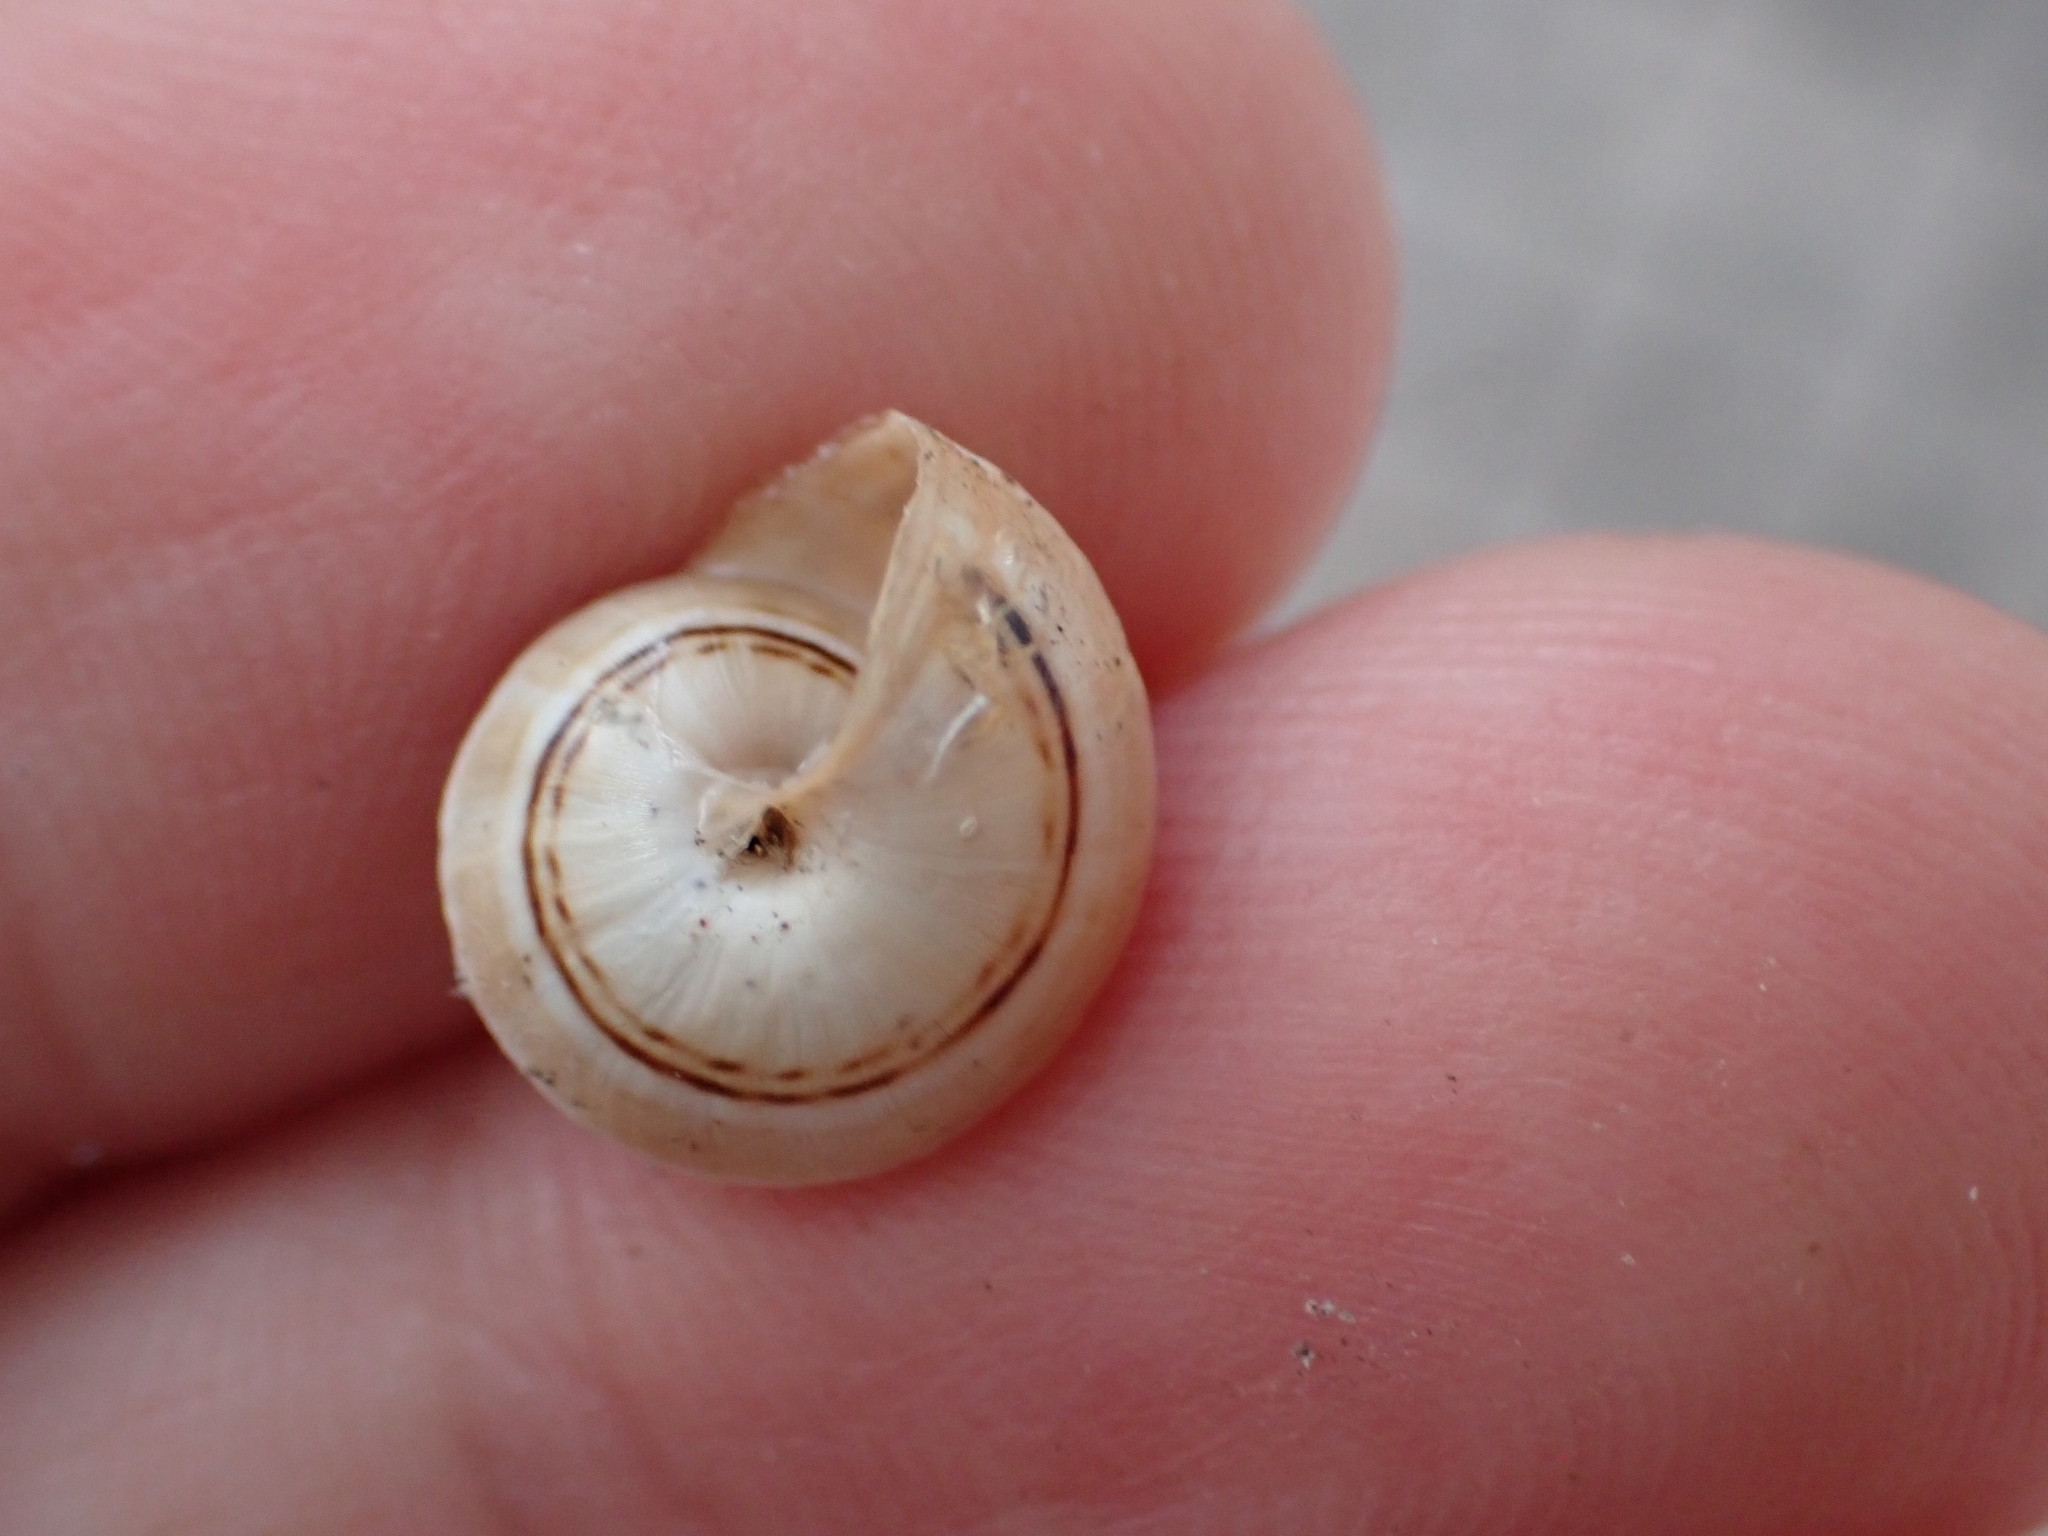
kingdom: Animalia
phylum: Mollusca
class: Gastropoda
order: Stylommatophora
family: Helicidae
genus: Theba
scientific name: Theba pisana
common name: White snail
